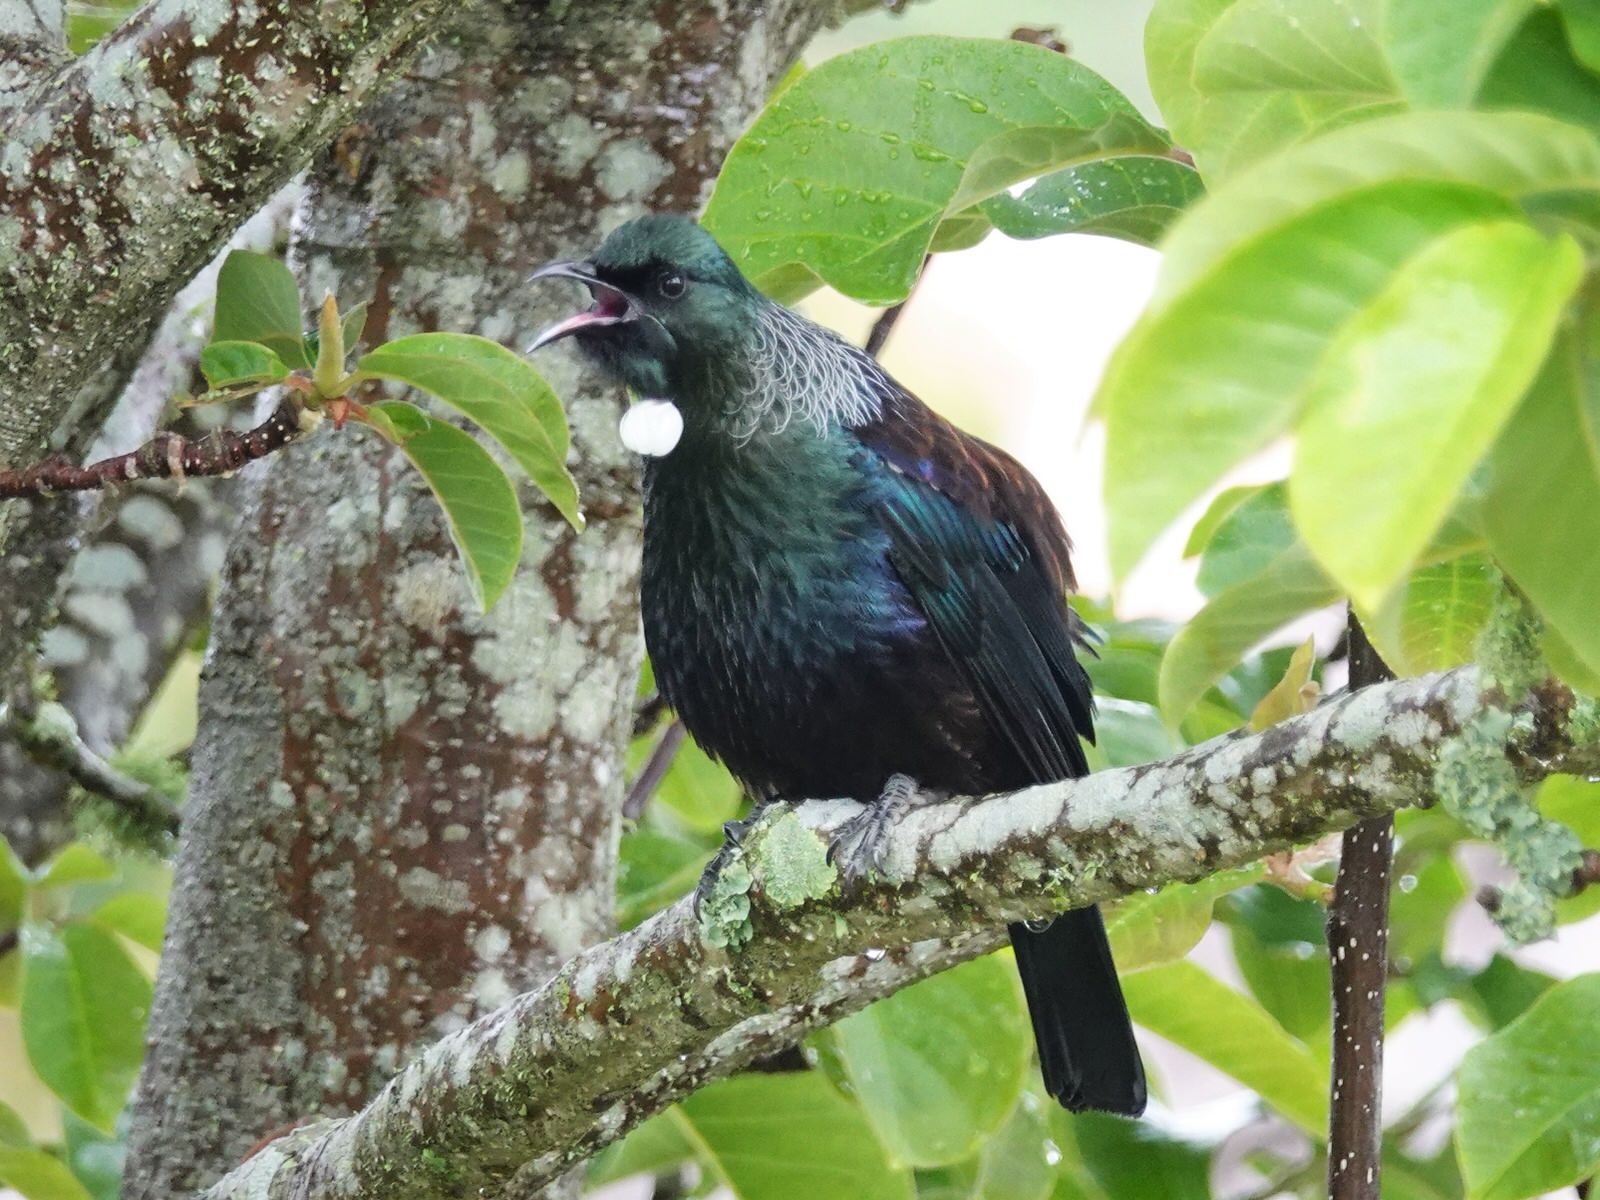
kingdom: Animalia
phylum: Chordata
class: Aves
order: Passeriformes
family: Meliphagidae
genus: Prosthemadera
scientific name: Prosthemadera novaeseelandiae
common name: Tui
